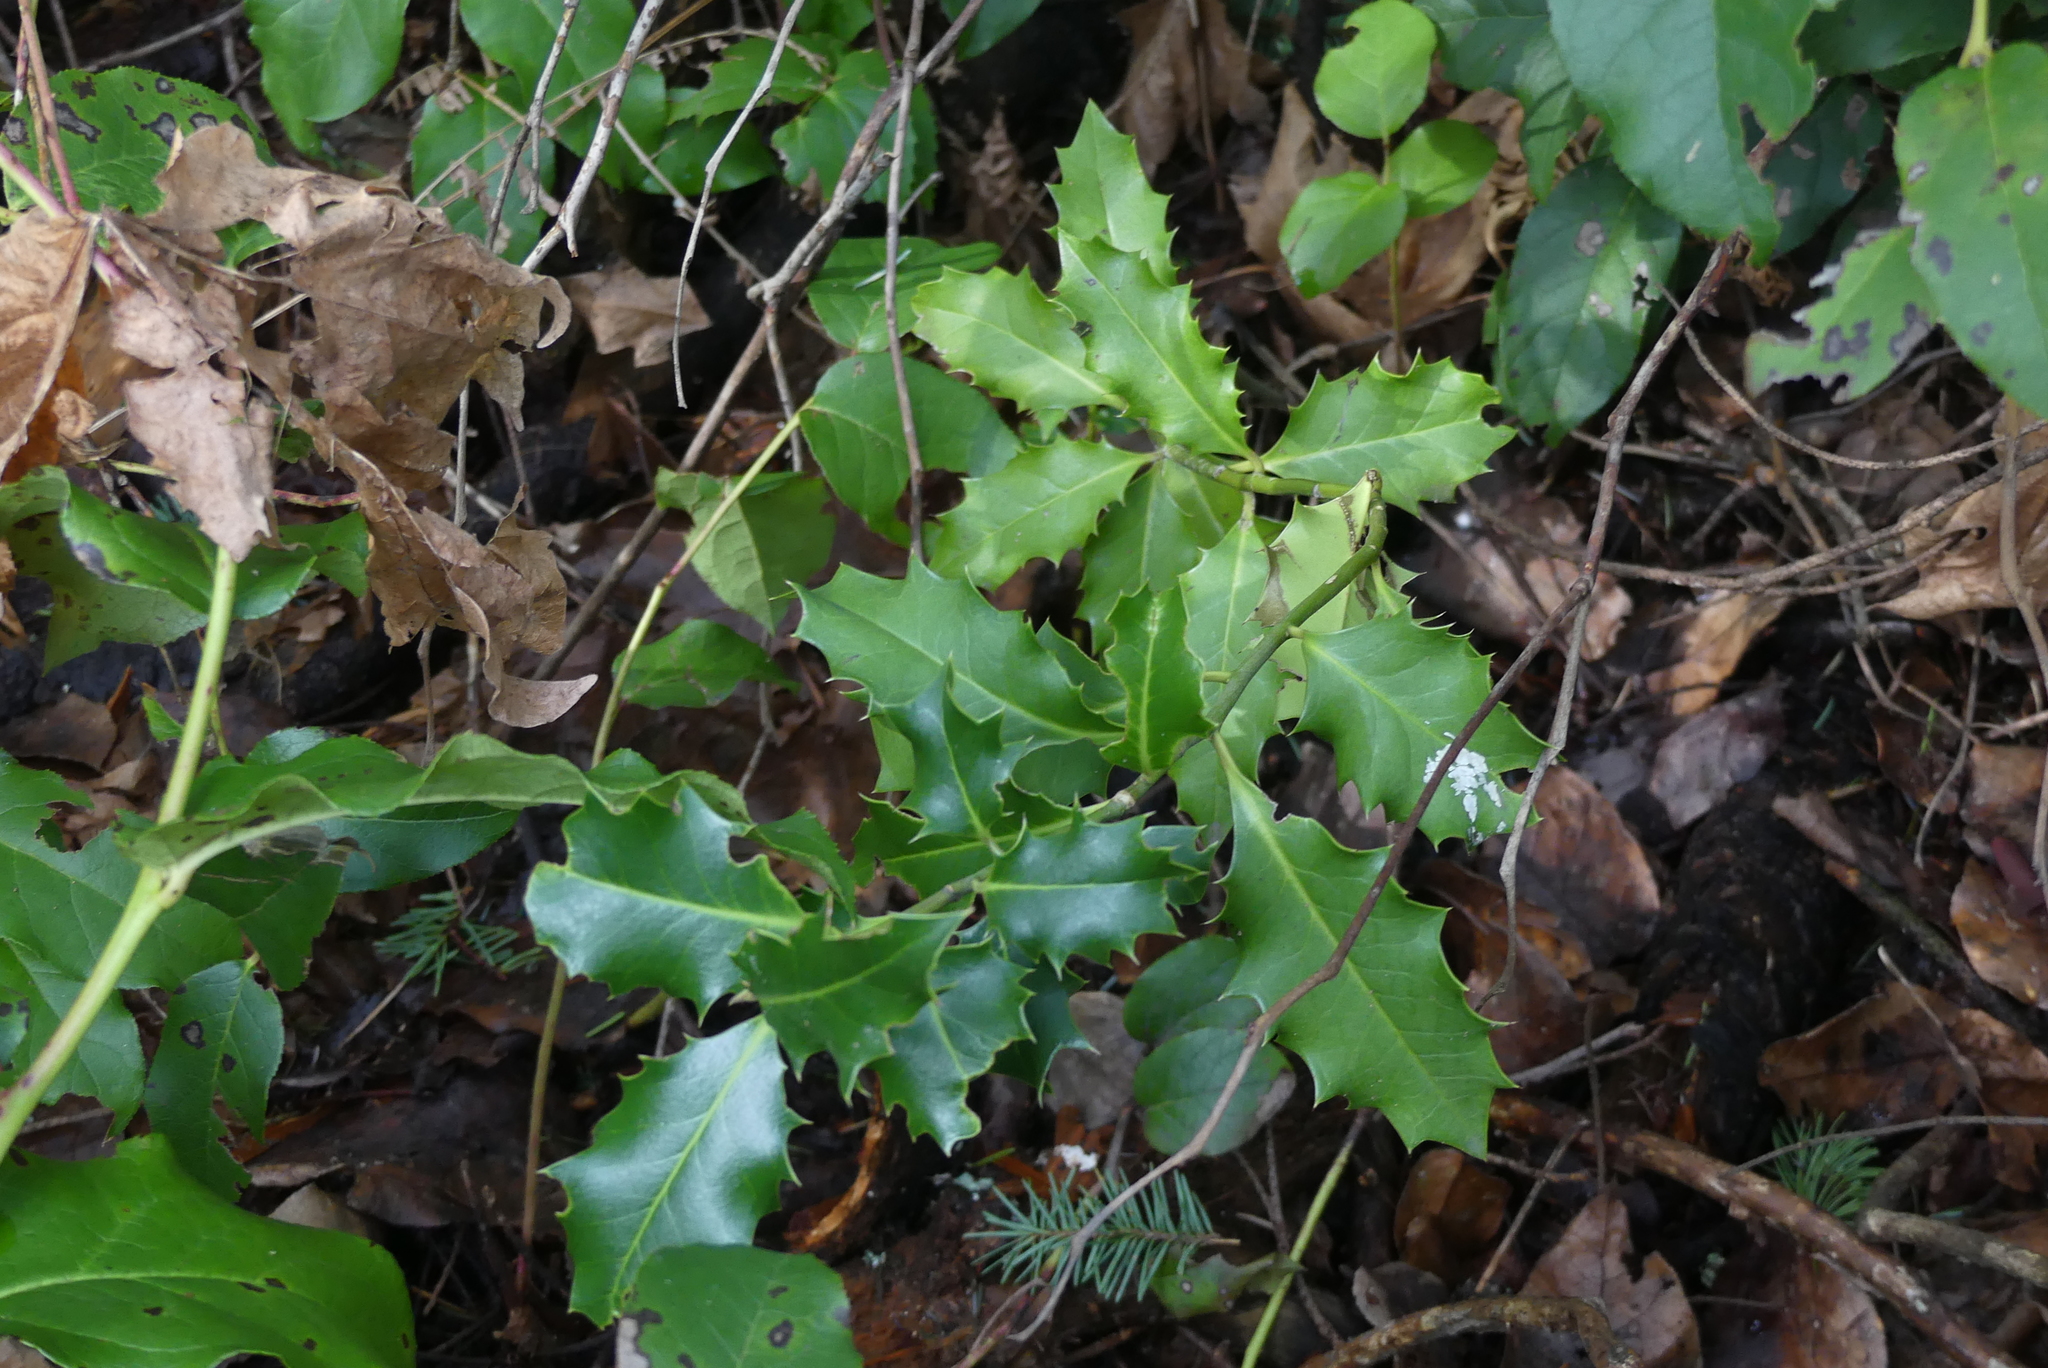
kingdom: Plantae
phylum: Tracheophyta
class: Magnoliopsida
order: Aquifoliales
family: Aquifoliaceae
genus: Ilex
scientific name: Ilex aquifolium
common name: English holly
